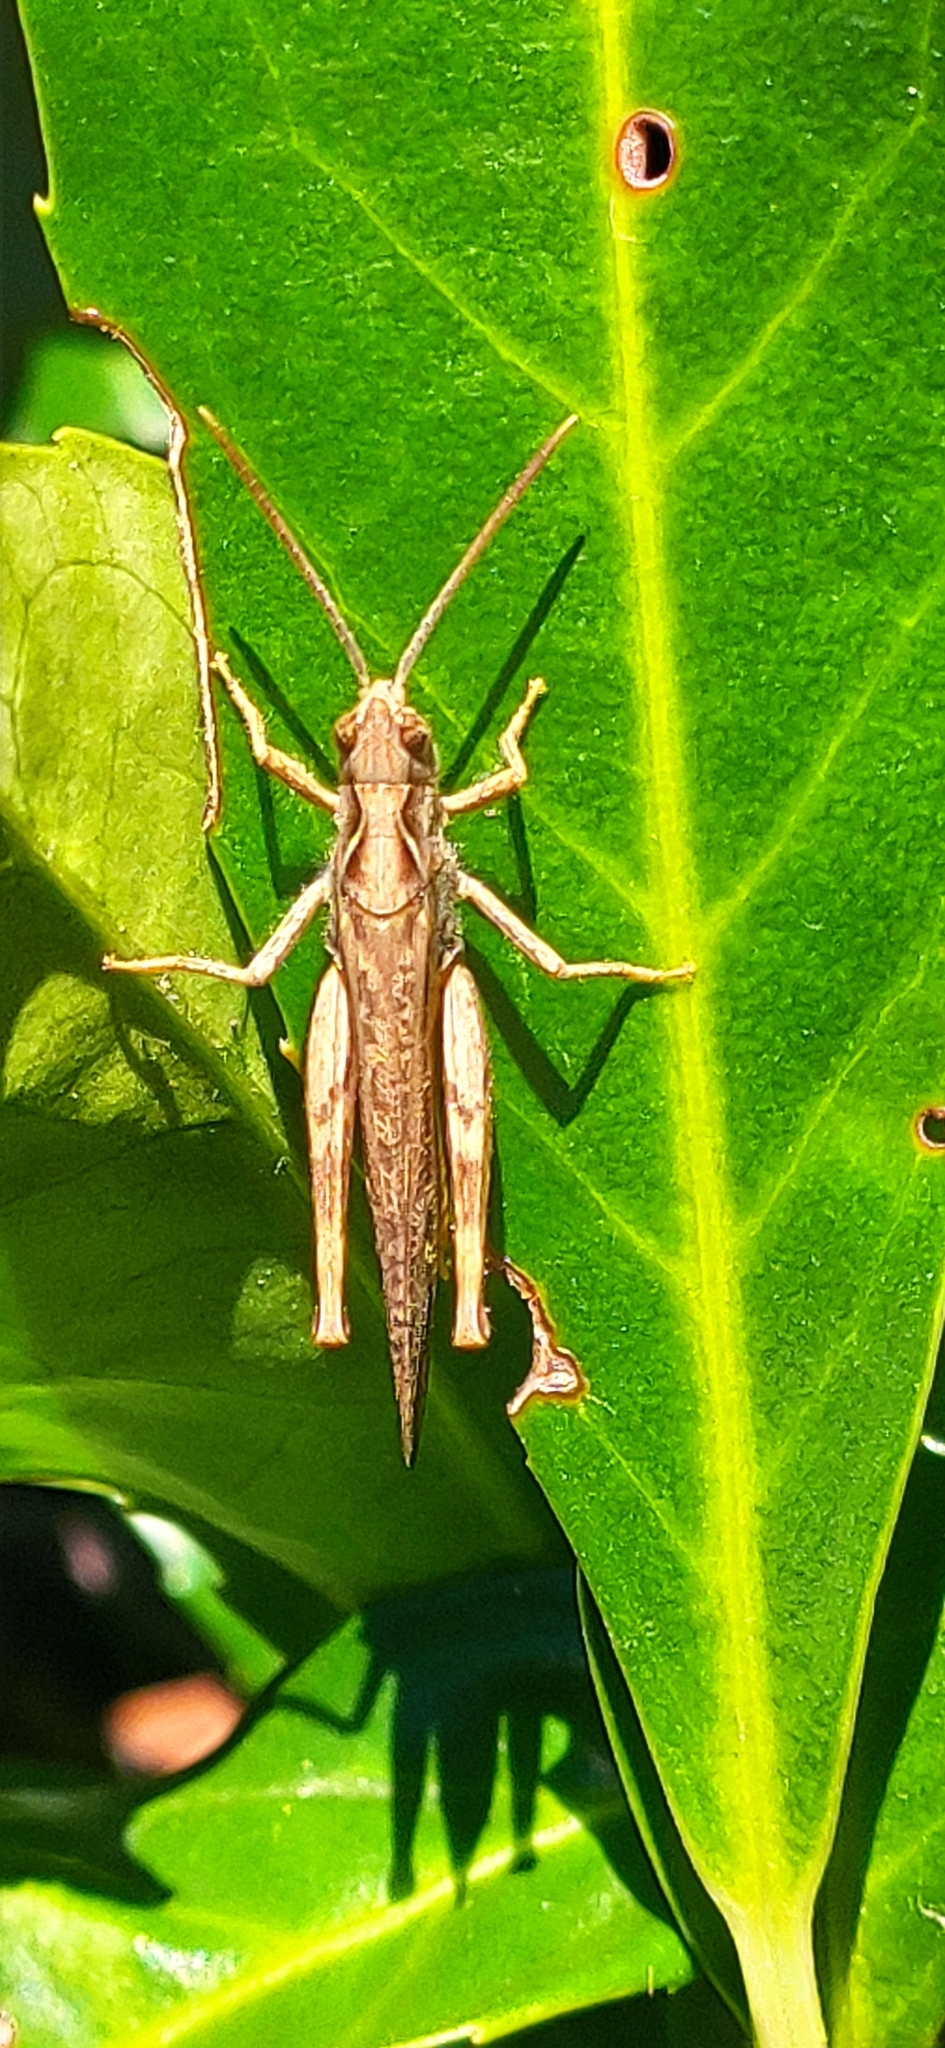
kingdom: Animalia
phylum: Arthropoda
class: Insecta
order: Orthoptera
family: Acrididae
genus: Chorthippus
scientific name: Chorthippus brunneus
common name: Field grasshopper
